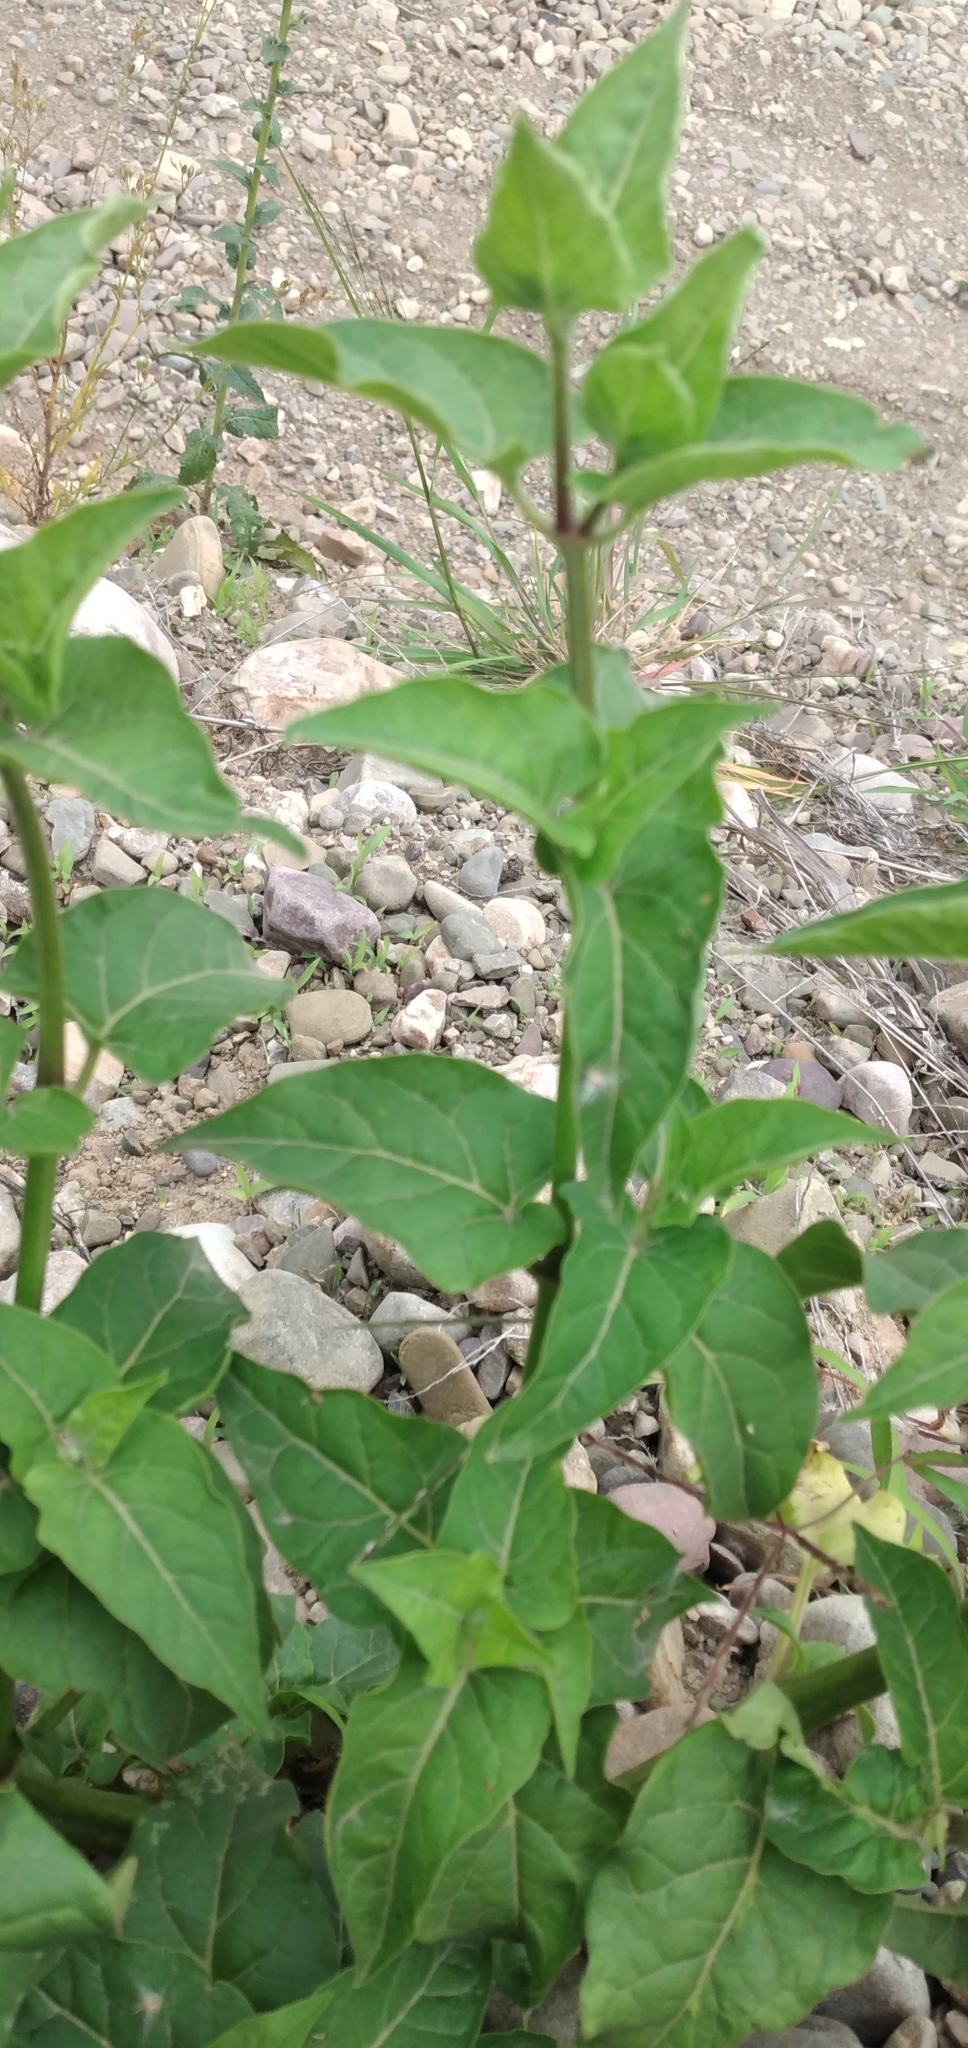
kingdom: Plantae
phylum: Tracheophyta
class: Magnoliopsida
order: Caryophyllales
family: Nyctaginaceae
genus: Mirabilis
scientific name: Mirabilis jalapa
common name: Marvel-of-peru
